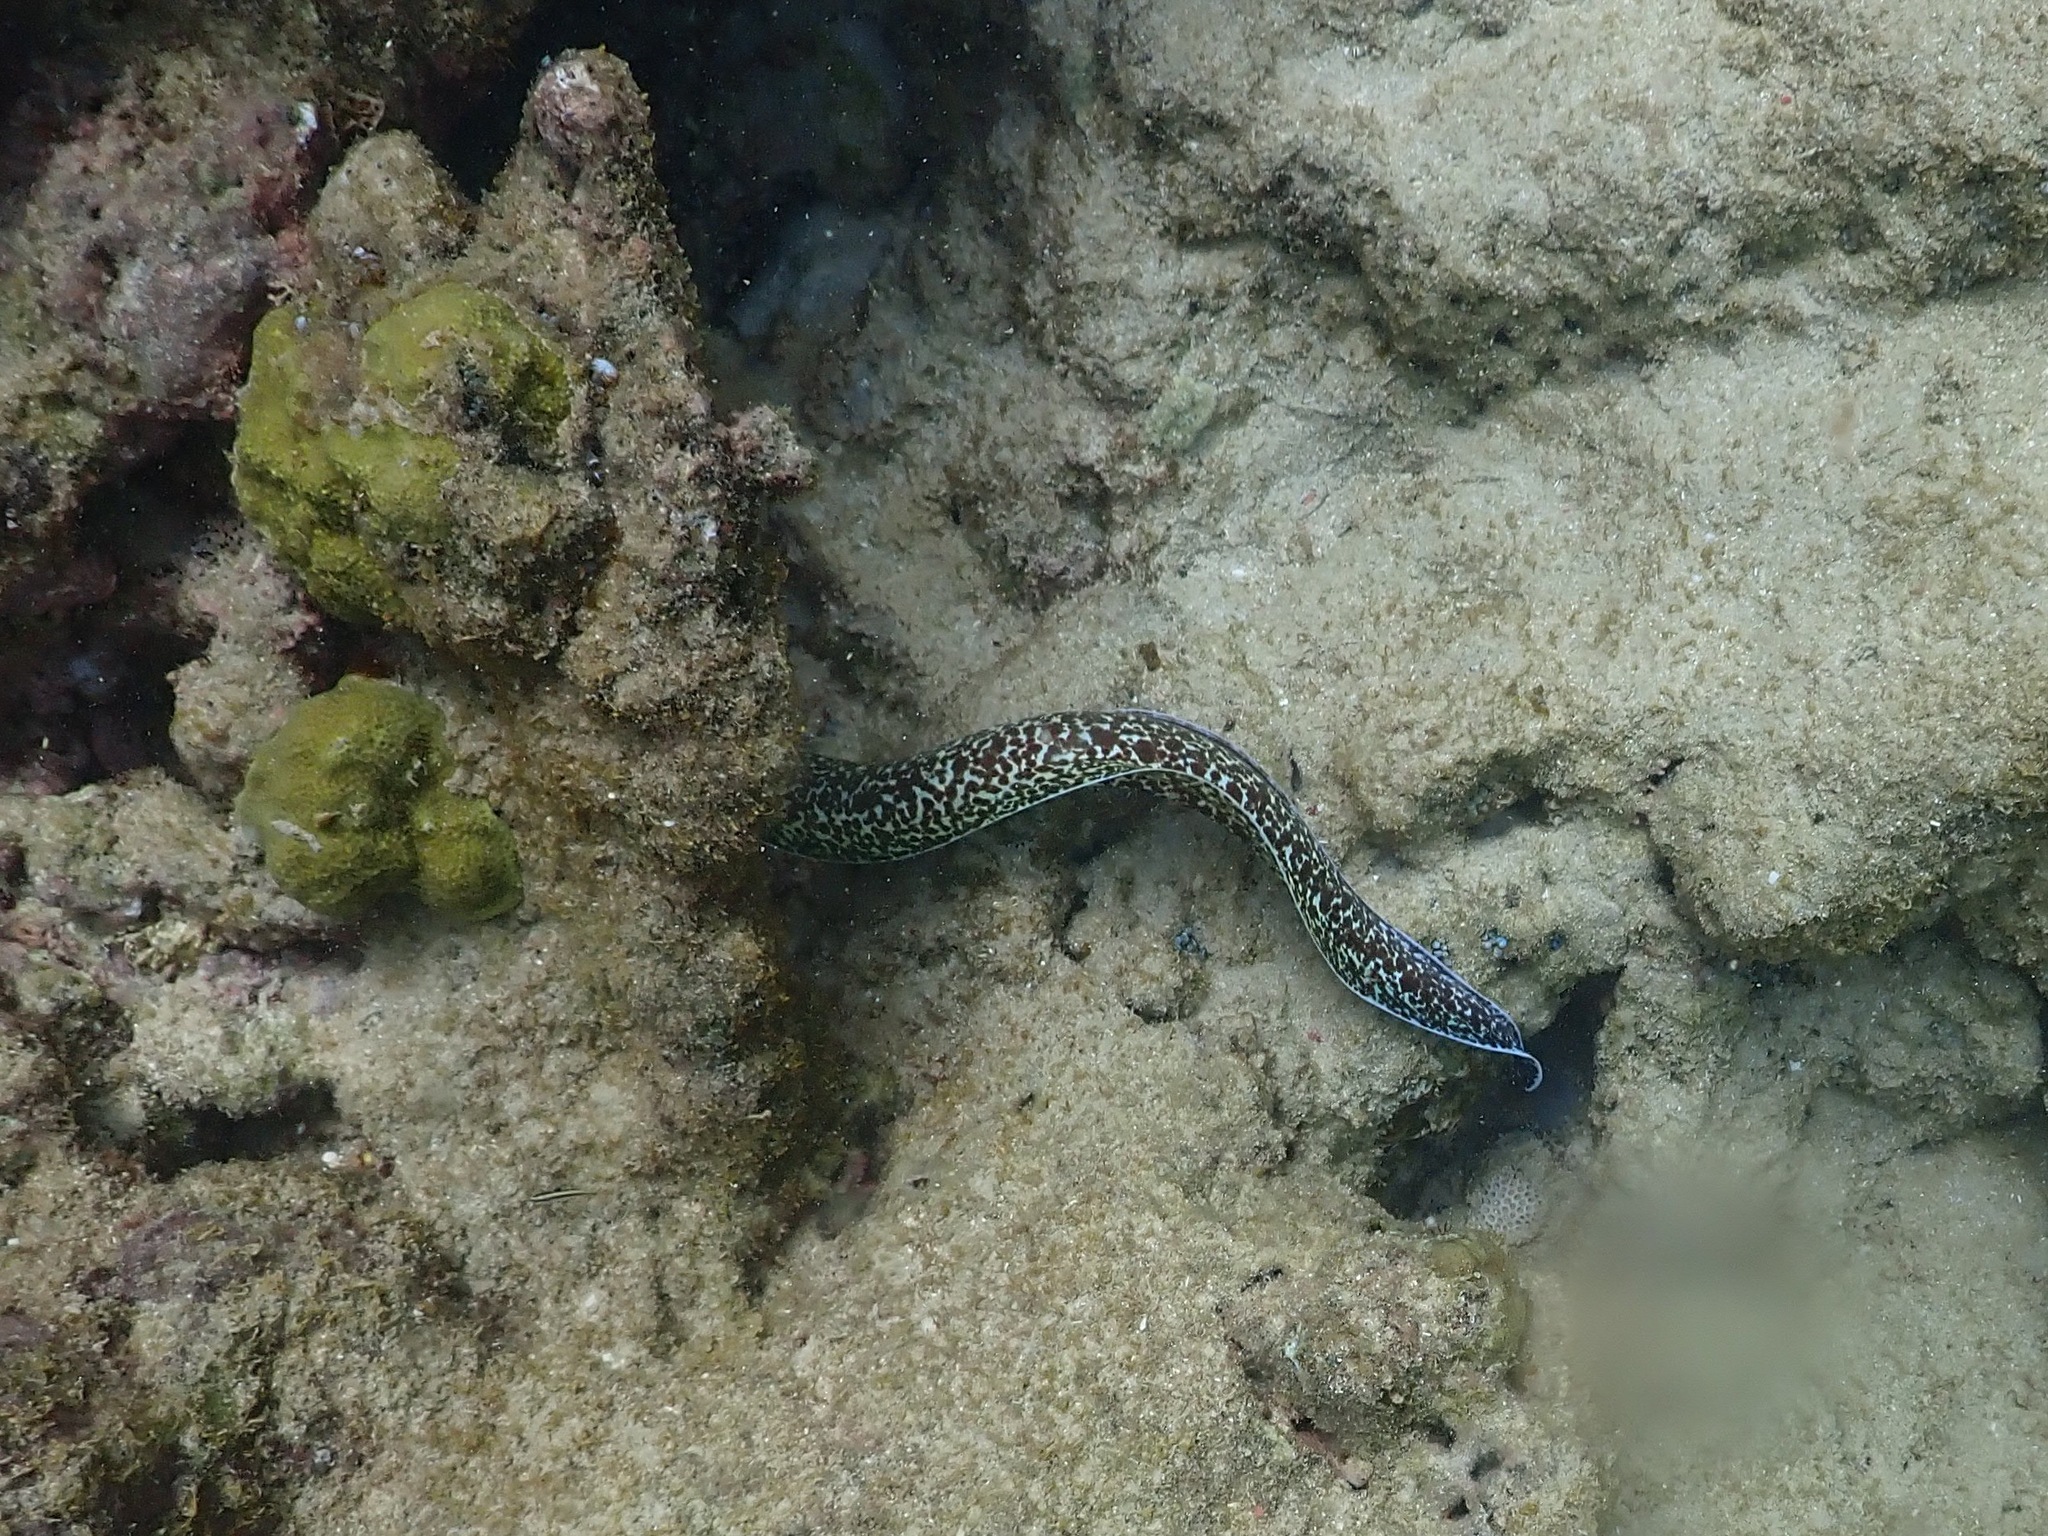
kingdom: Animalia
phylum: Chordata
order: Anguilliformes
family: Muraenidae
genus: Gymnothorax
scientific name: Gymnothorax moringa
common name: Spotted moray
